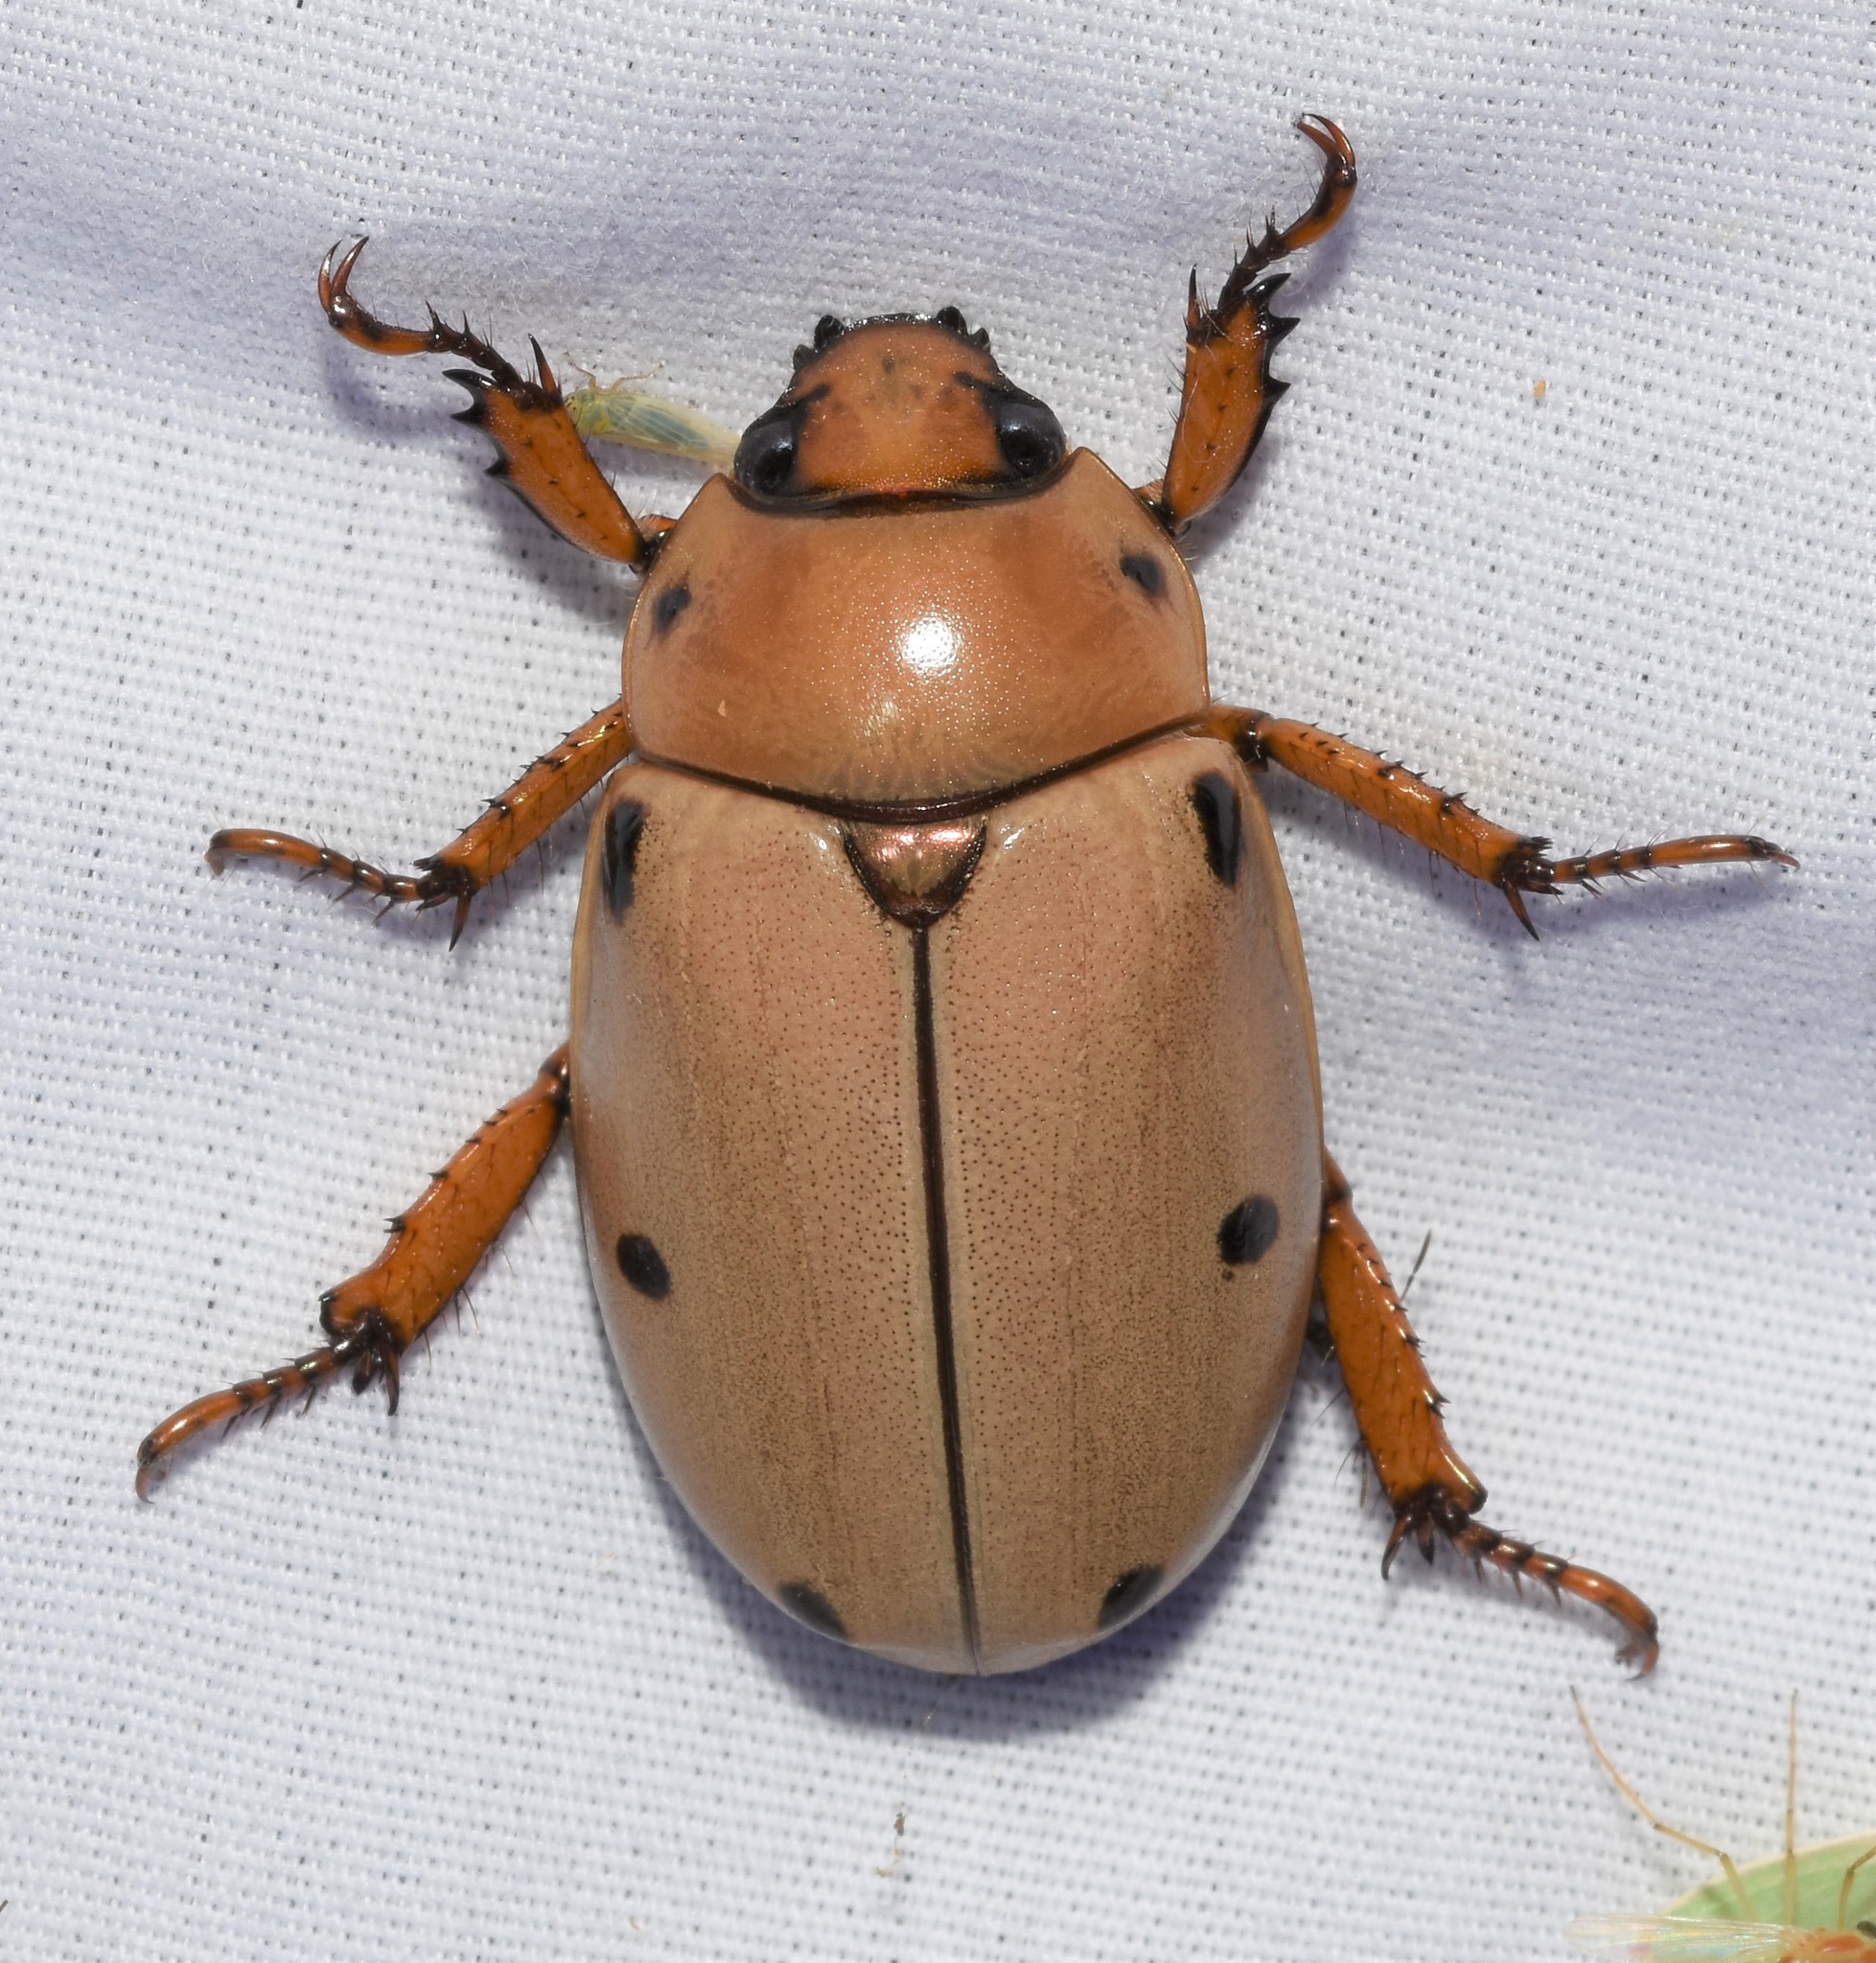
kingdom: Animalia
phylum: Arthropoda
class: Insecta
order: Coleoptera
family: Scarabaeidae
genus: Pelidnota
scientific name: Pelidnota punctata
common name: Grapevine beetle
